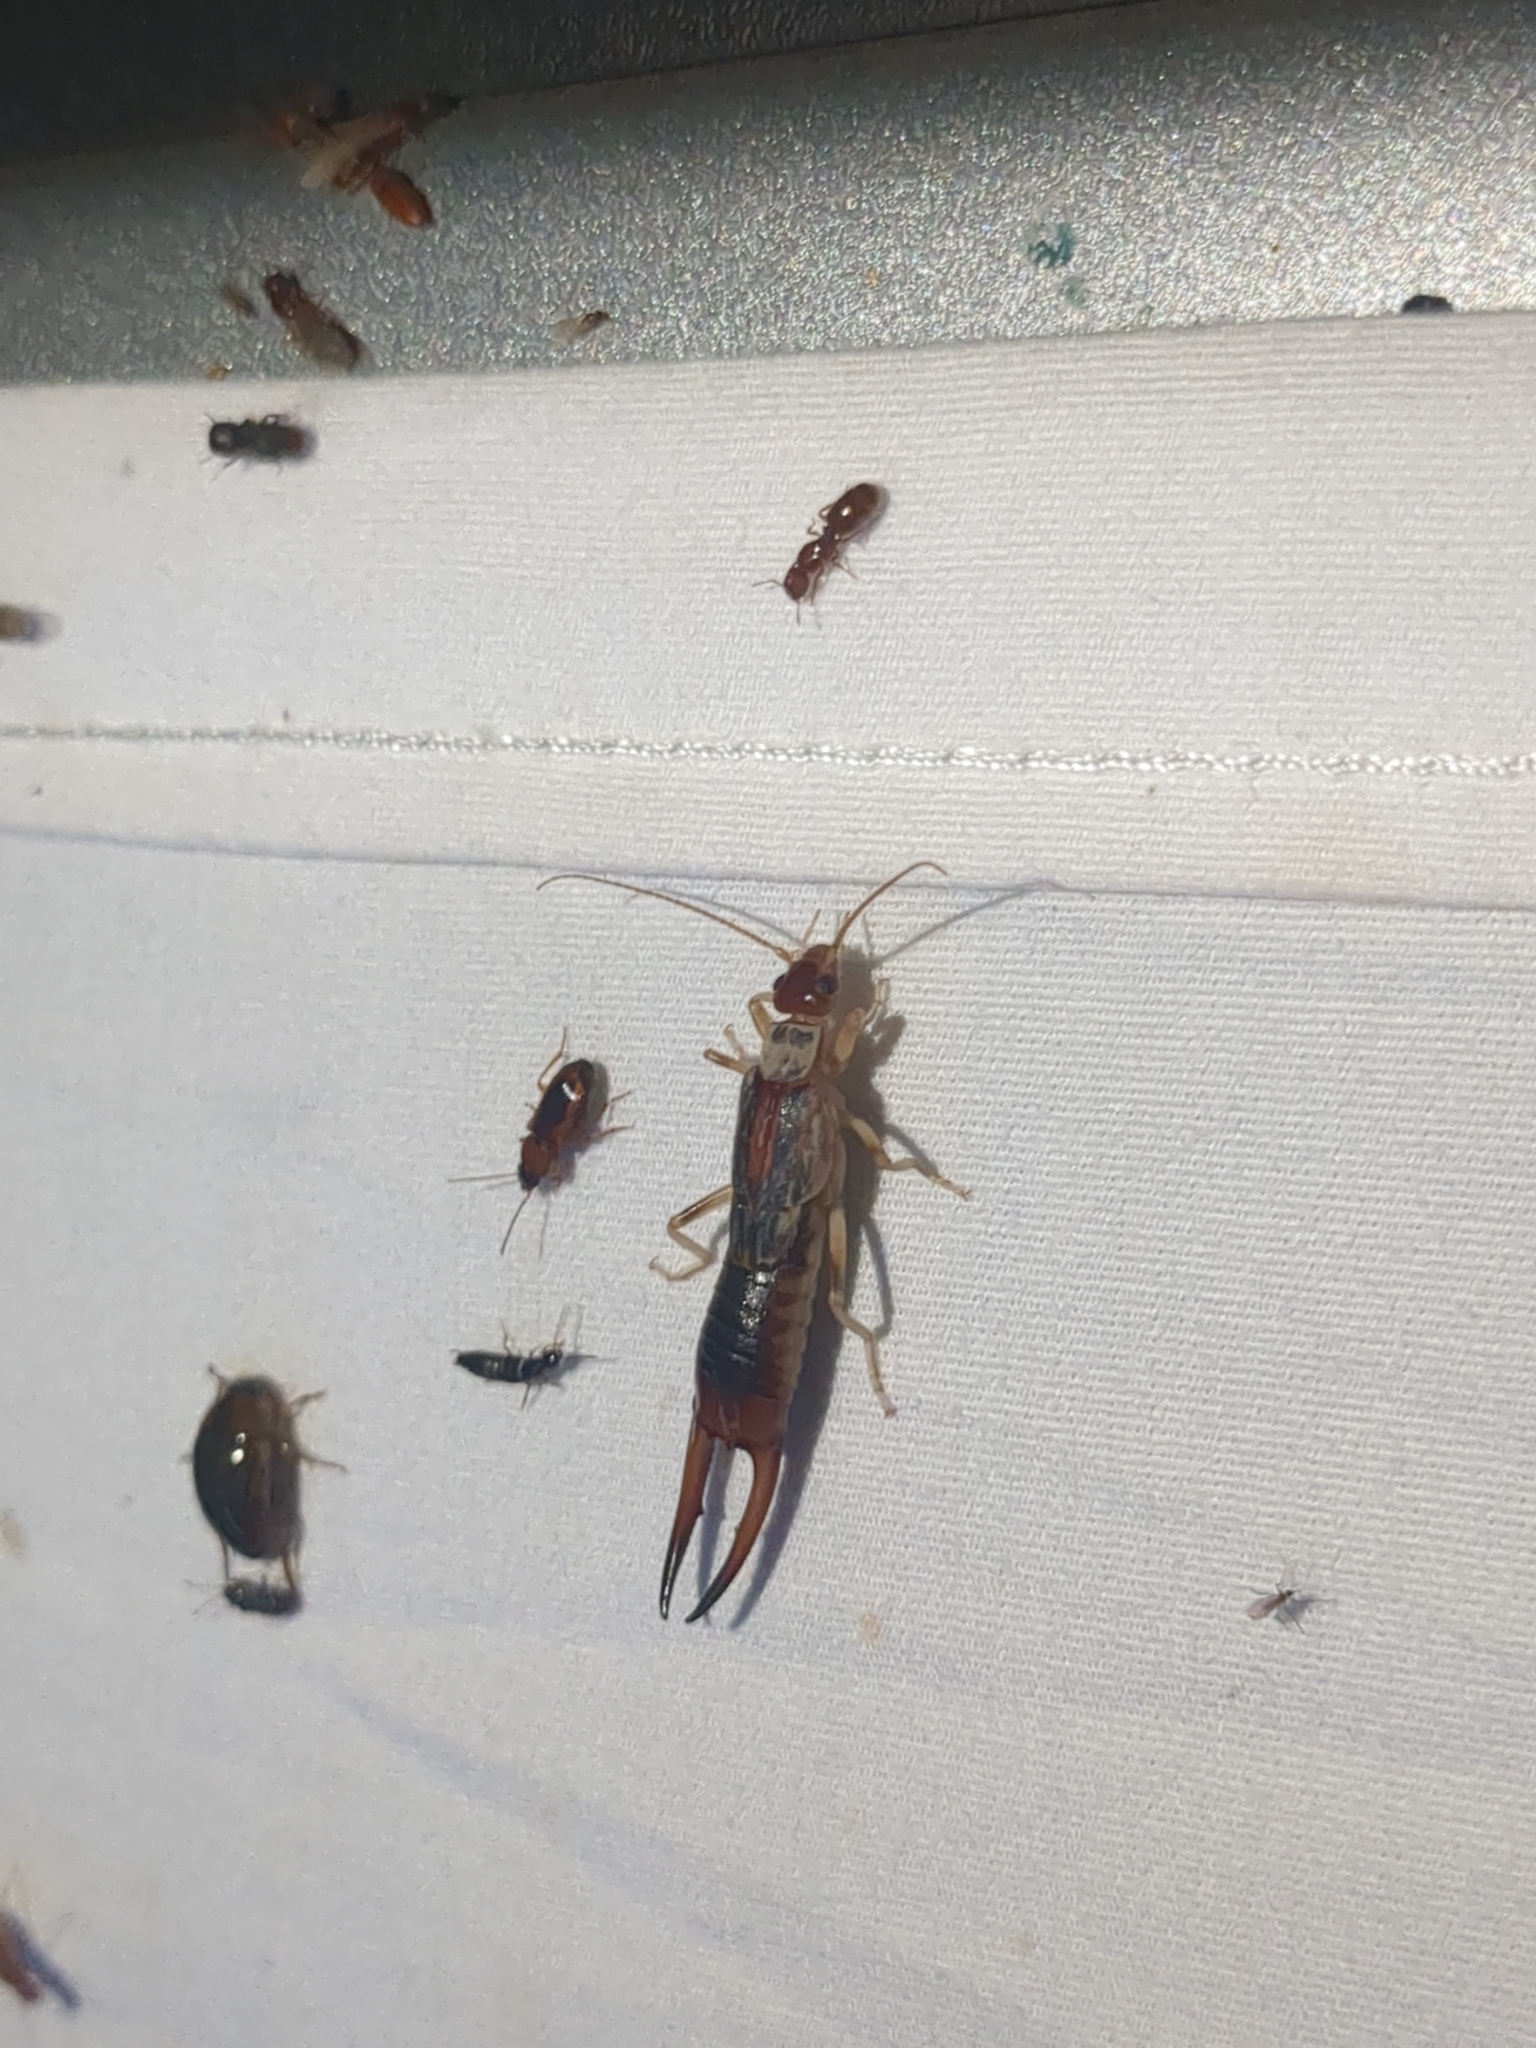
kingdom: Animalia
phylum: Arthropoda
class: Insecta
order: Dermaptera
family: Labiduridae
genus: Labidura
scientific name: Labidura riparia
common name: Striped earwig
